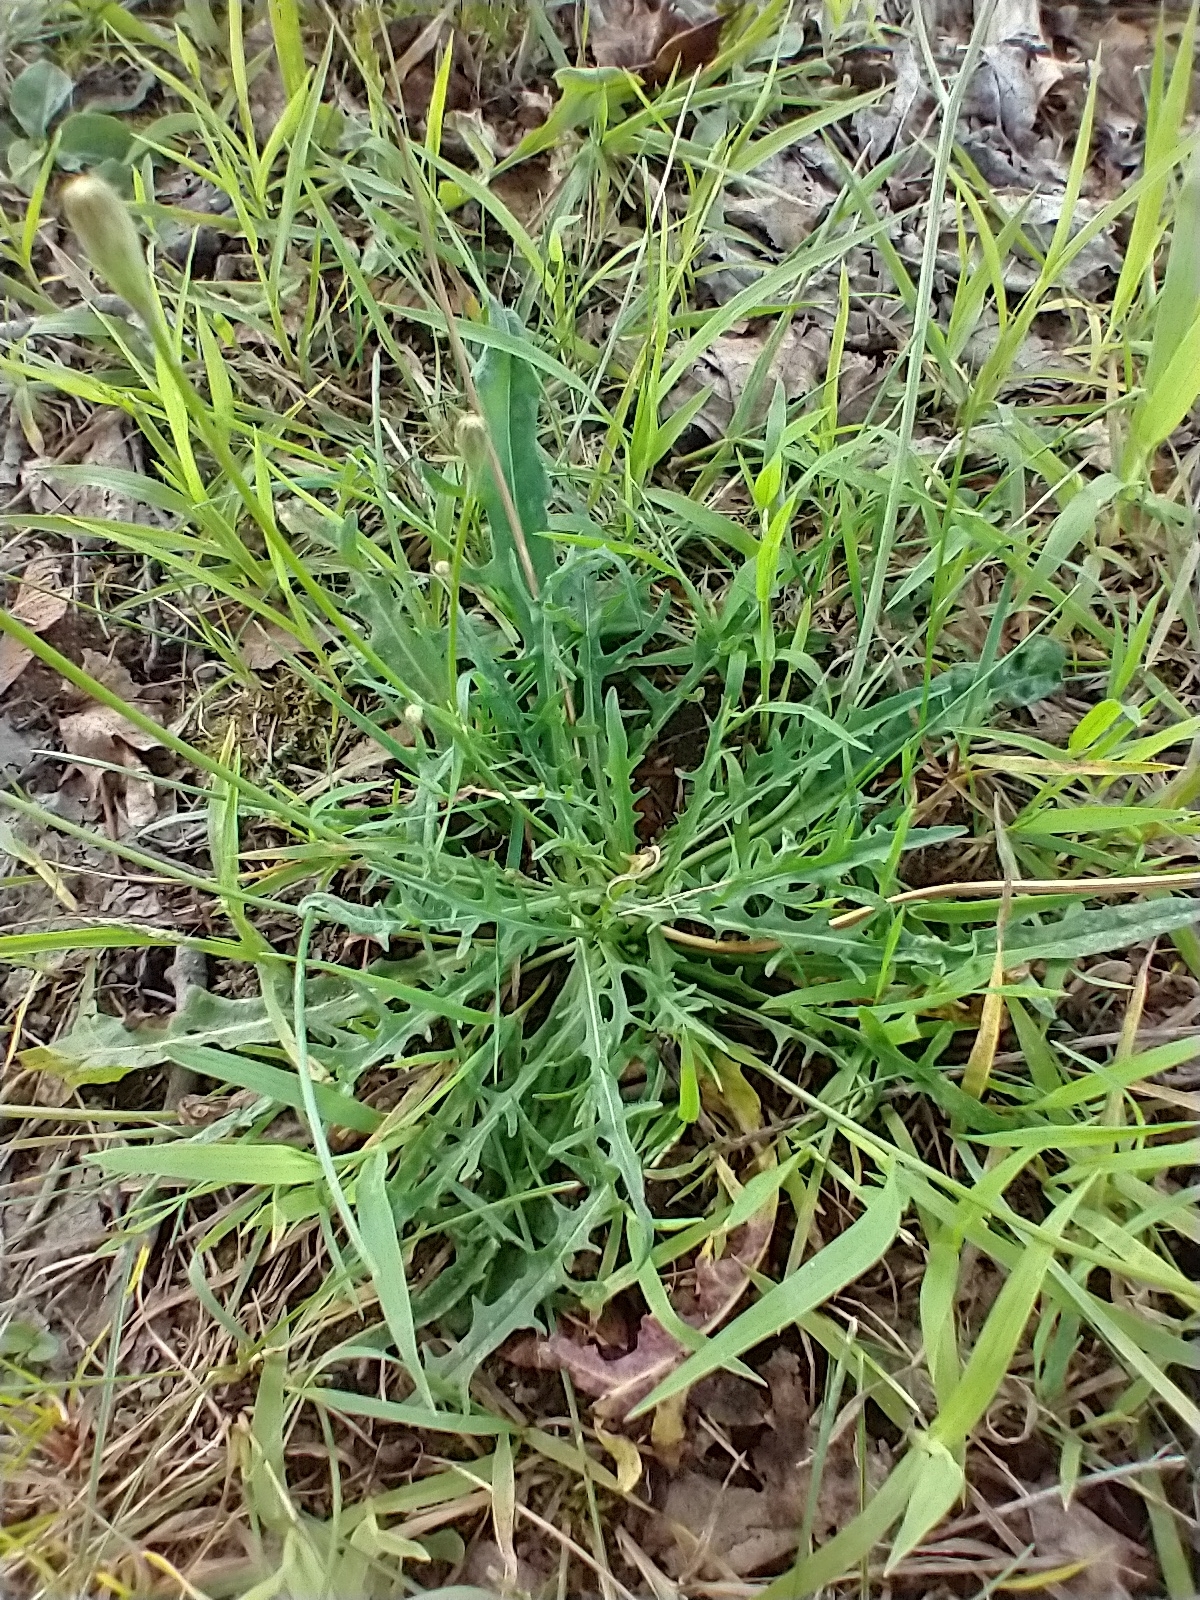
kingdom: Plantae
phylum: Tracheophyta
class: Magnoliopsida
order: Asterales
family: Asteraceae
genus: Scorzoneroides
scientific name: Scorzoneroides autumnalis
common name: Autumn hawkbit
